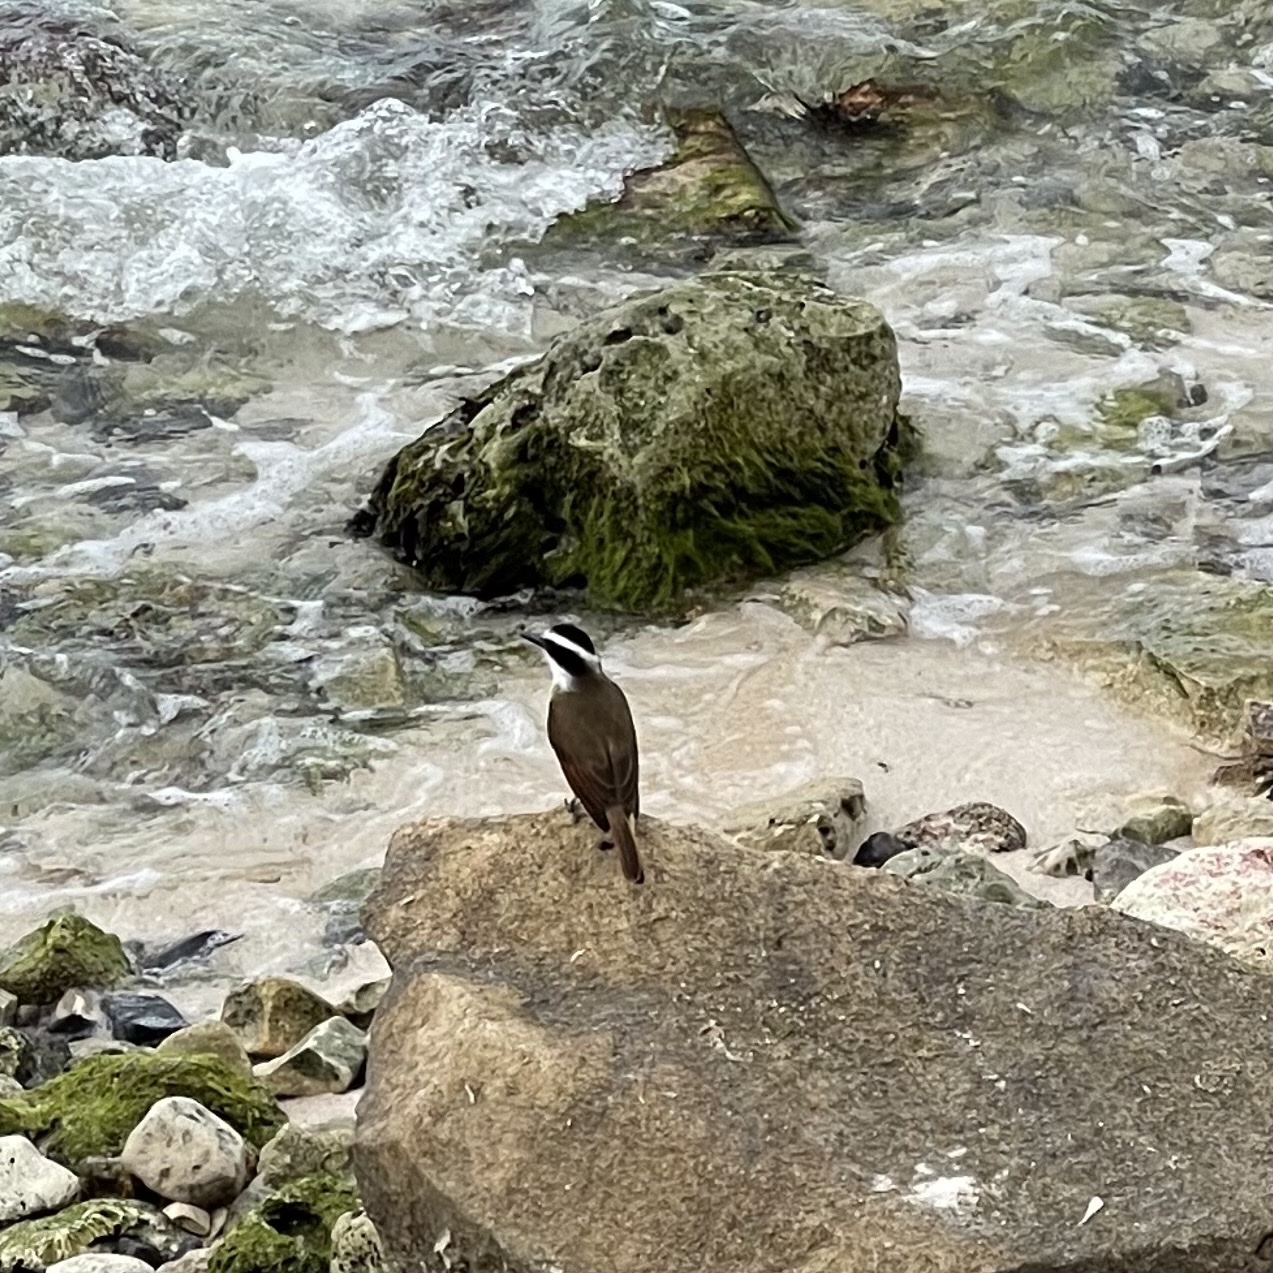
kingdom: Animalia
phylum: Chordata
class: Aves
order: Passeriformes
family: Tyrannidae
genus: Pitangus
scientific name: Pitangus sulphuratus
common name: Great kiskadee
